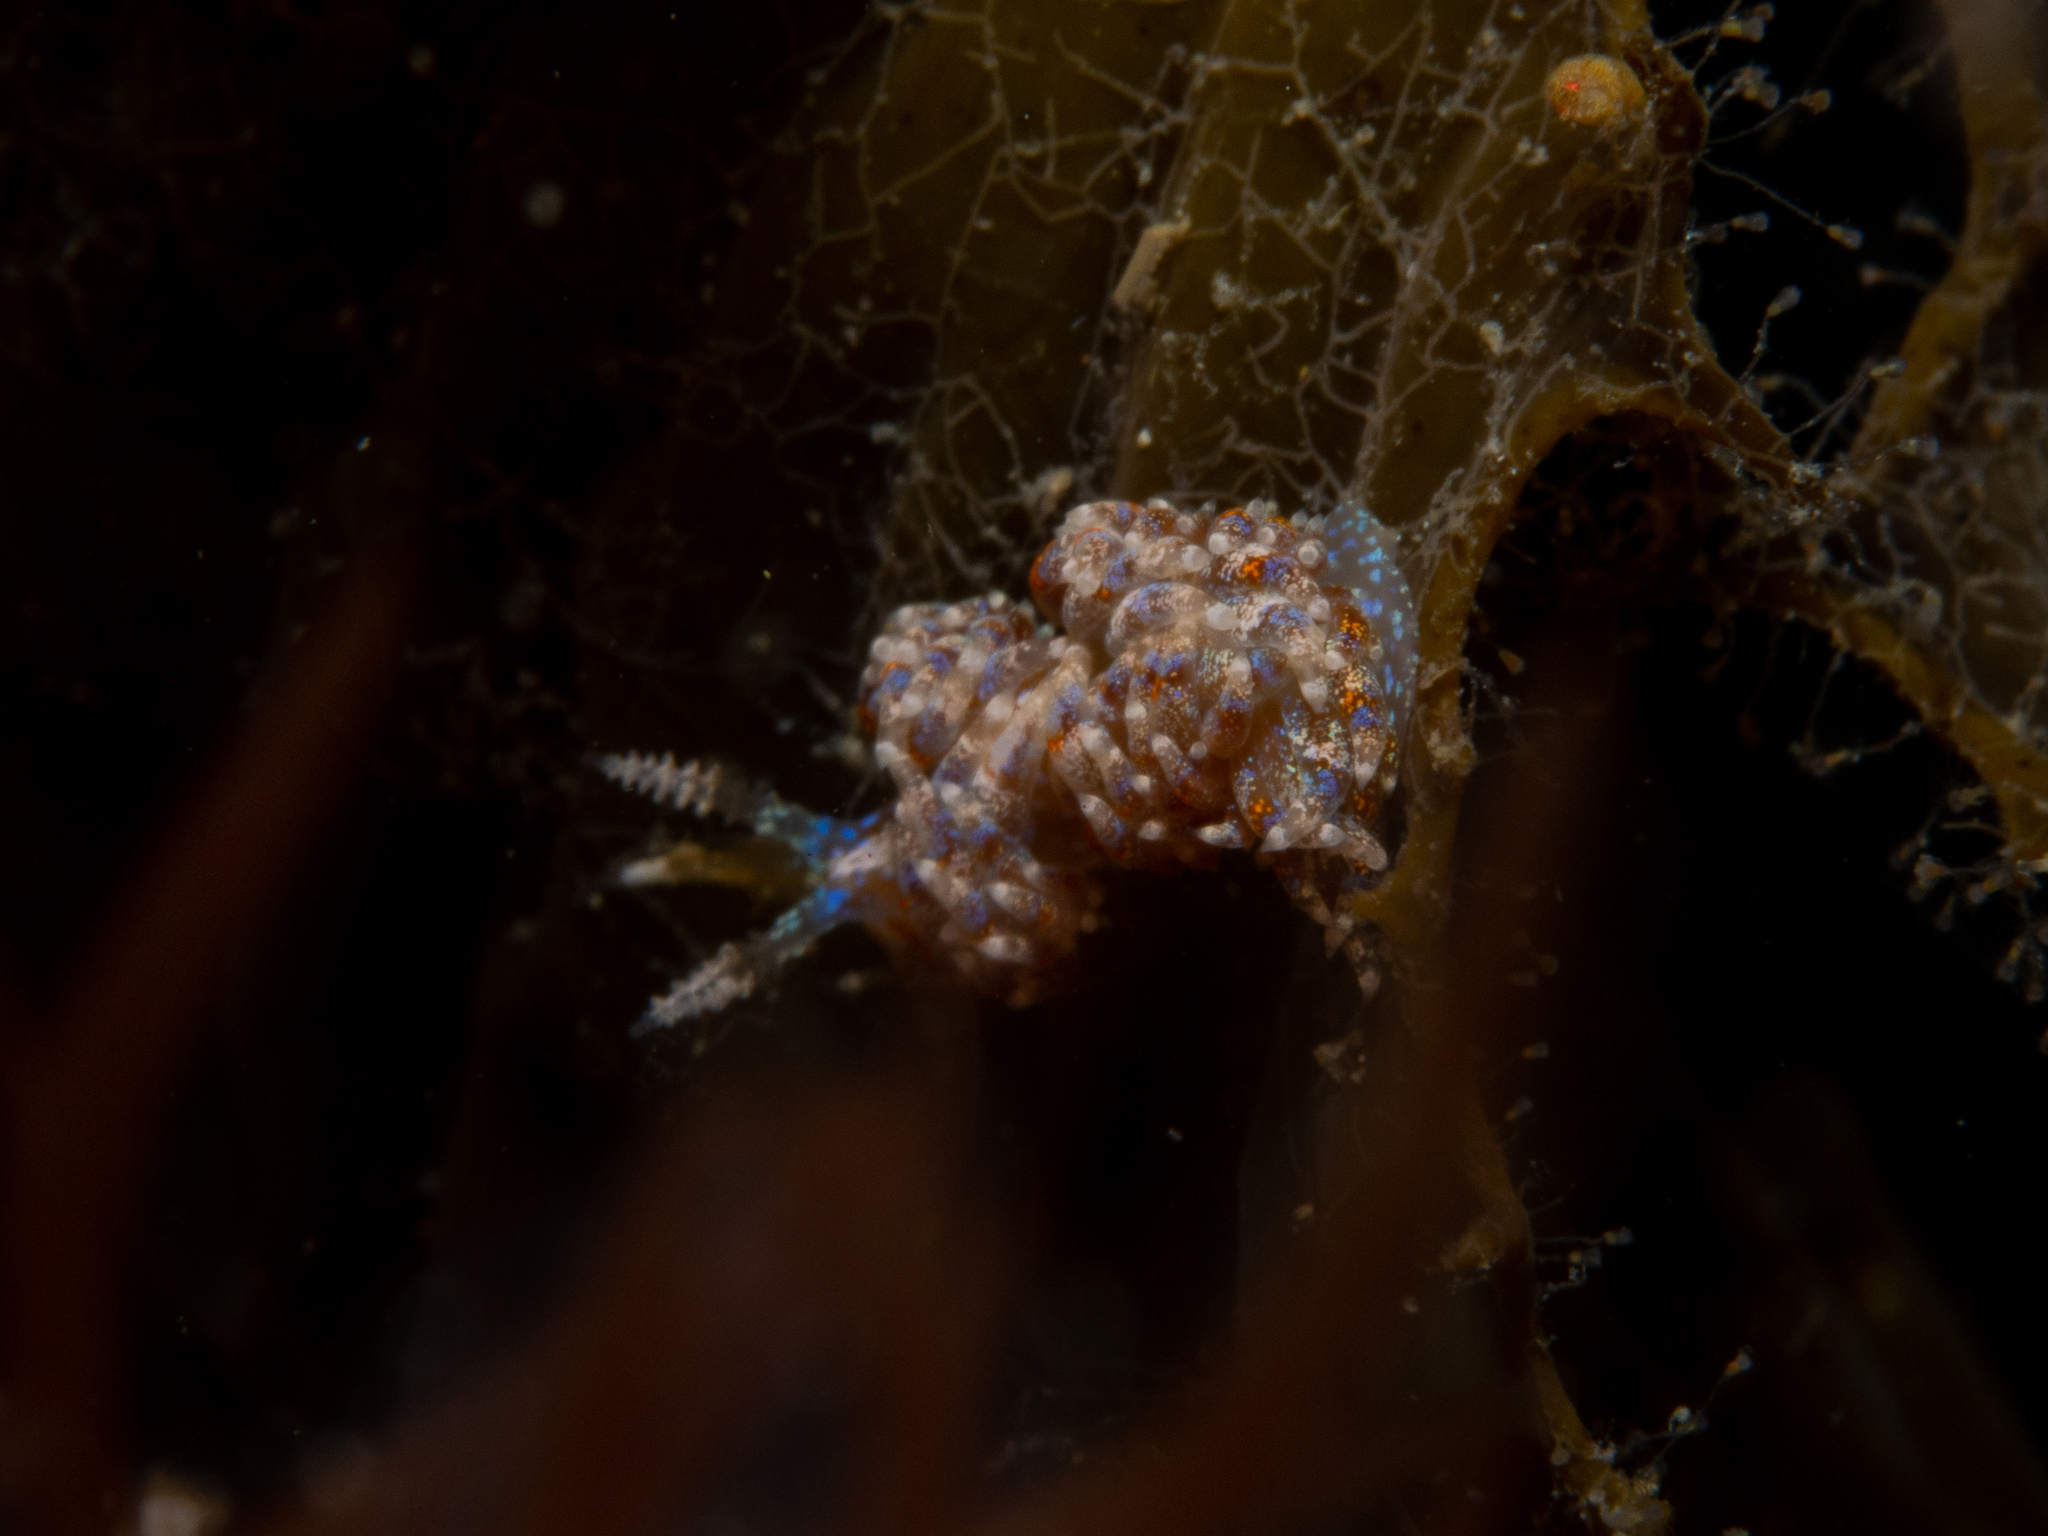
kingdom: Animalia
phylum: Mollusca
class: Gastropoda
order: Nudibranchia
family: Facelinidae
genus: Austraeolis
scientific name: Austraeolis ornata
